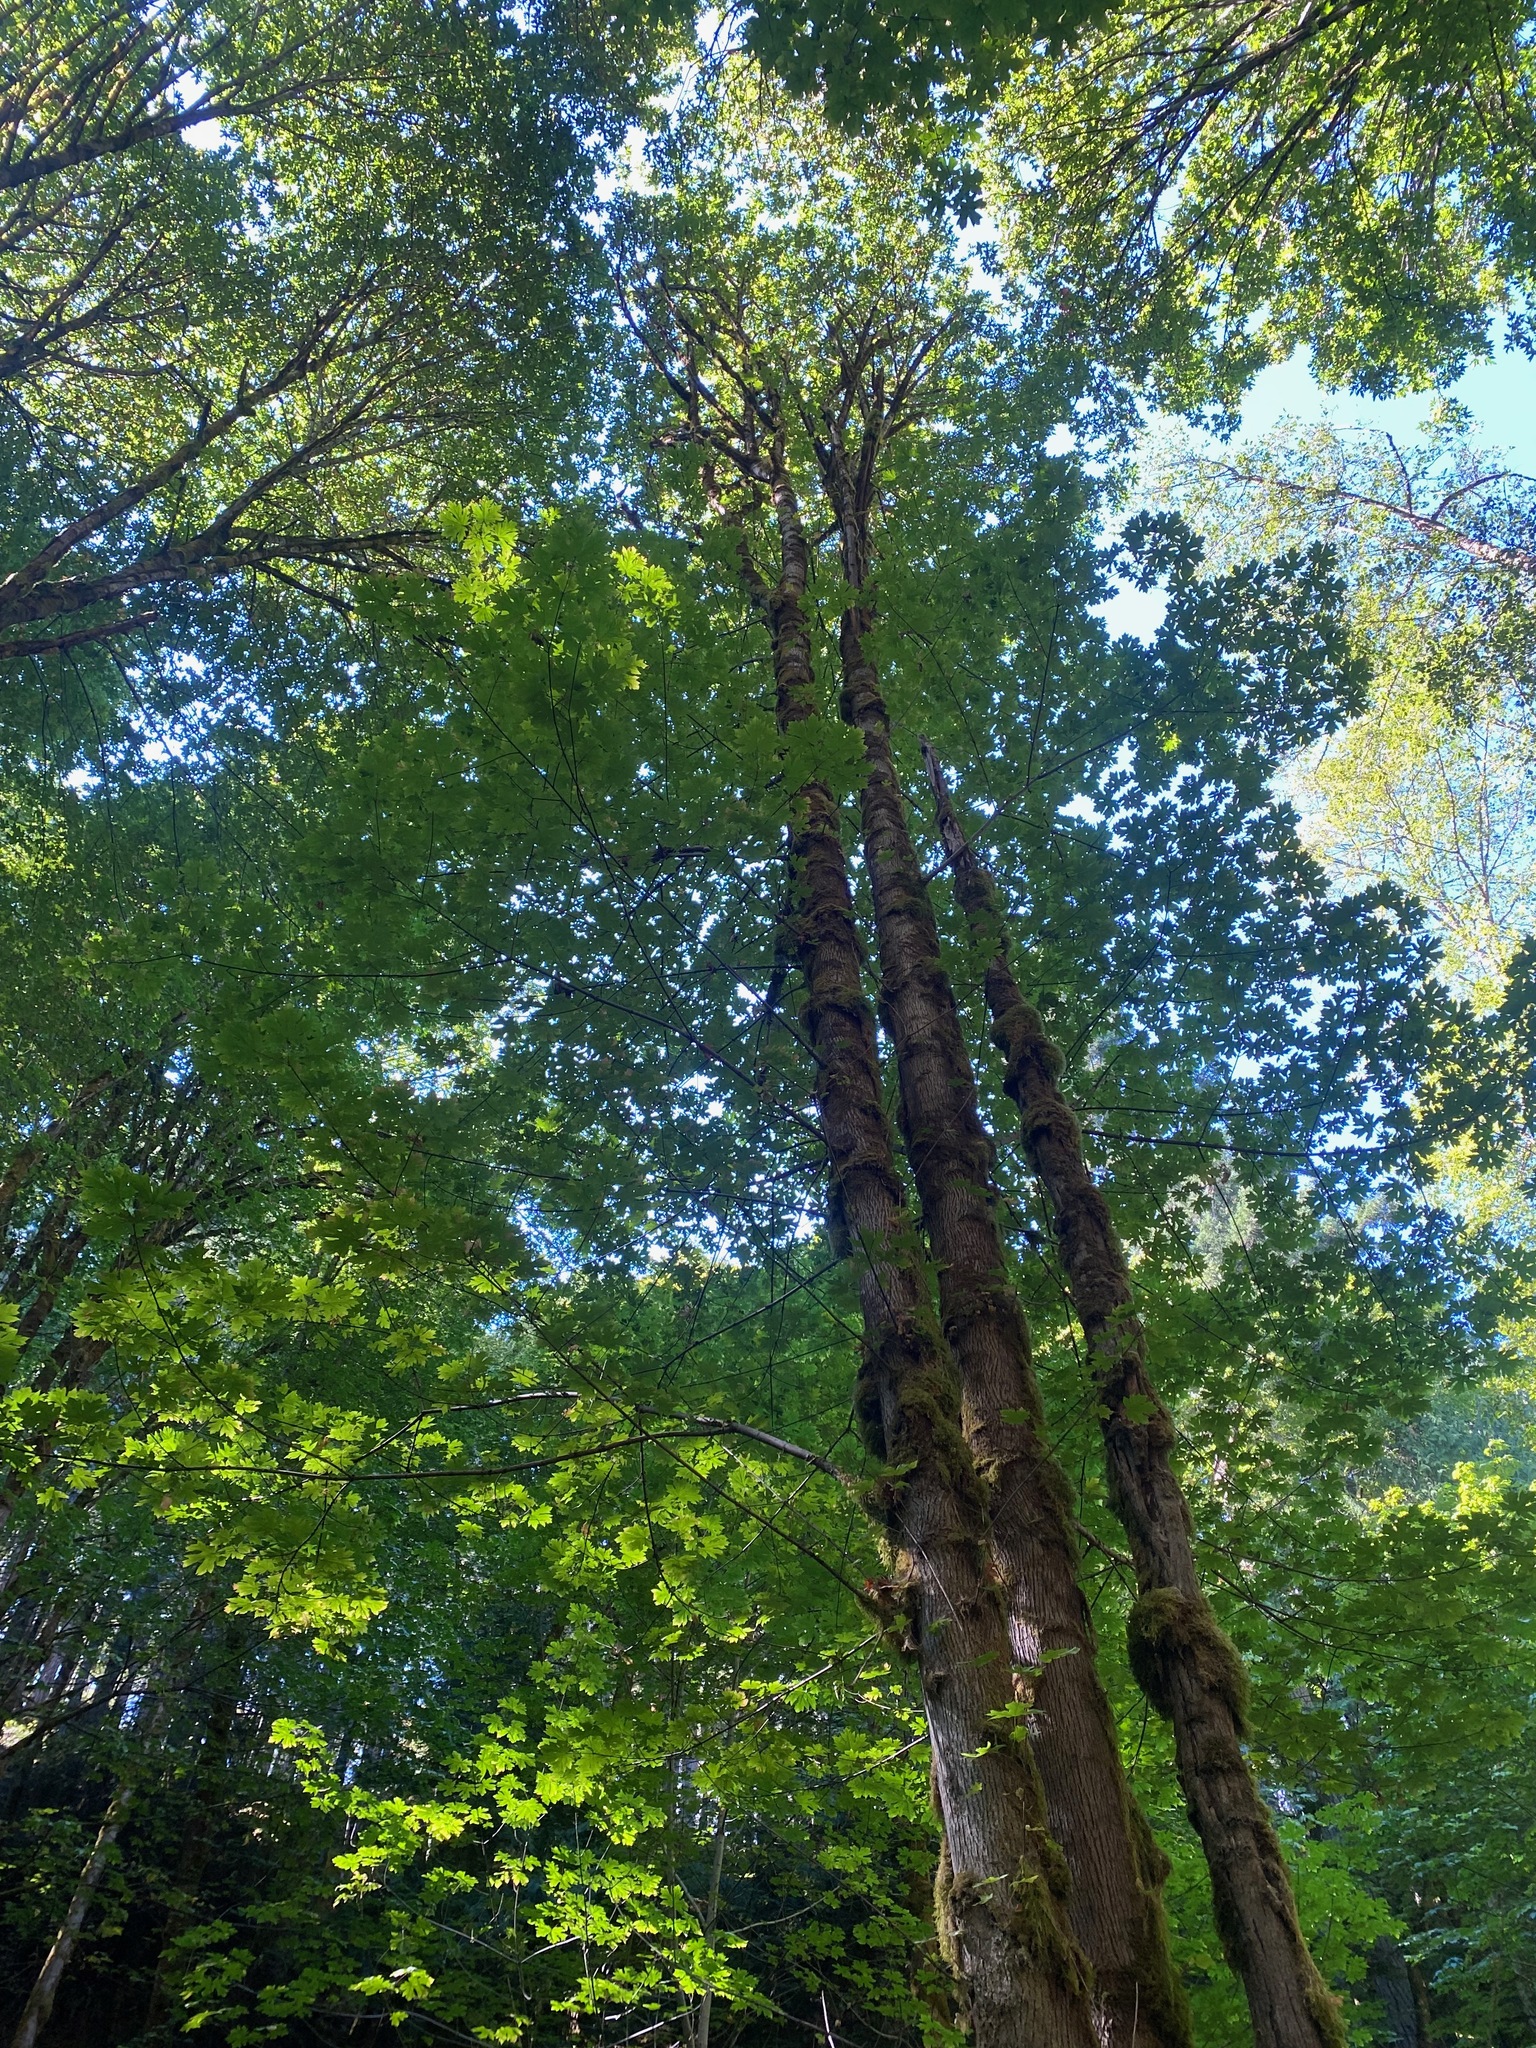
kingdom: Plantae
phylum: Tracheophyta
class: Magnoliopsida
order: Sapindales
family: Sapindaceae
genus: Acer
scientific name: Acer macrophyllum
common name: Oregon maple
